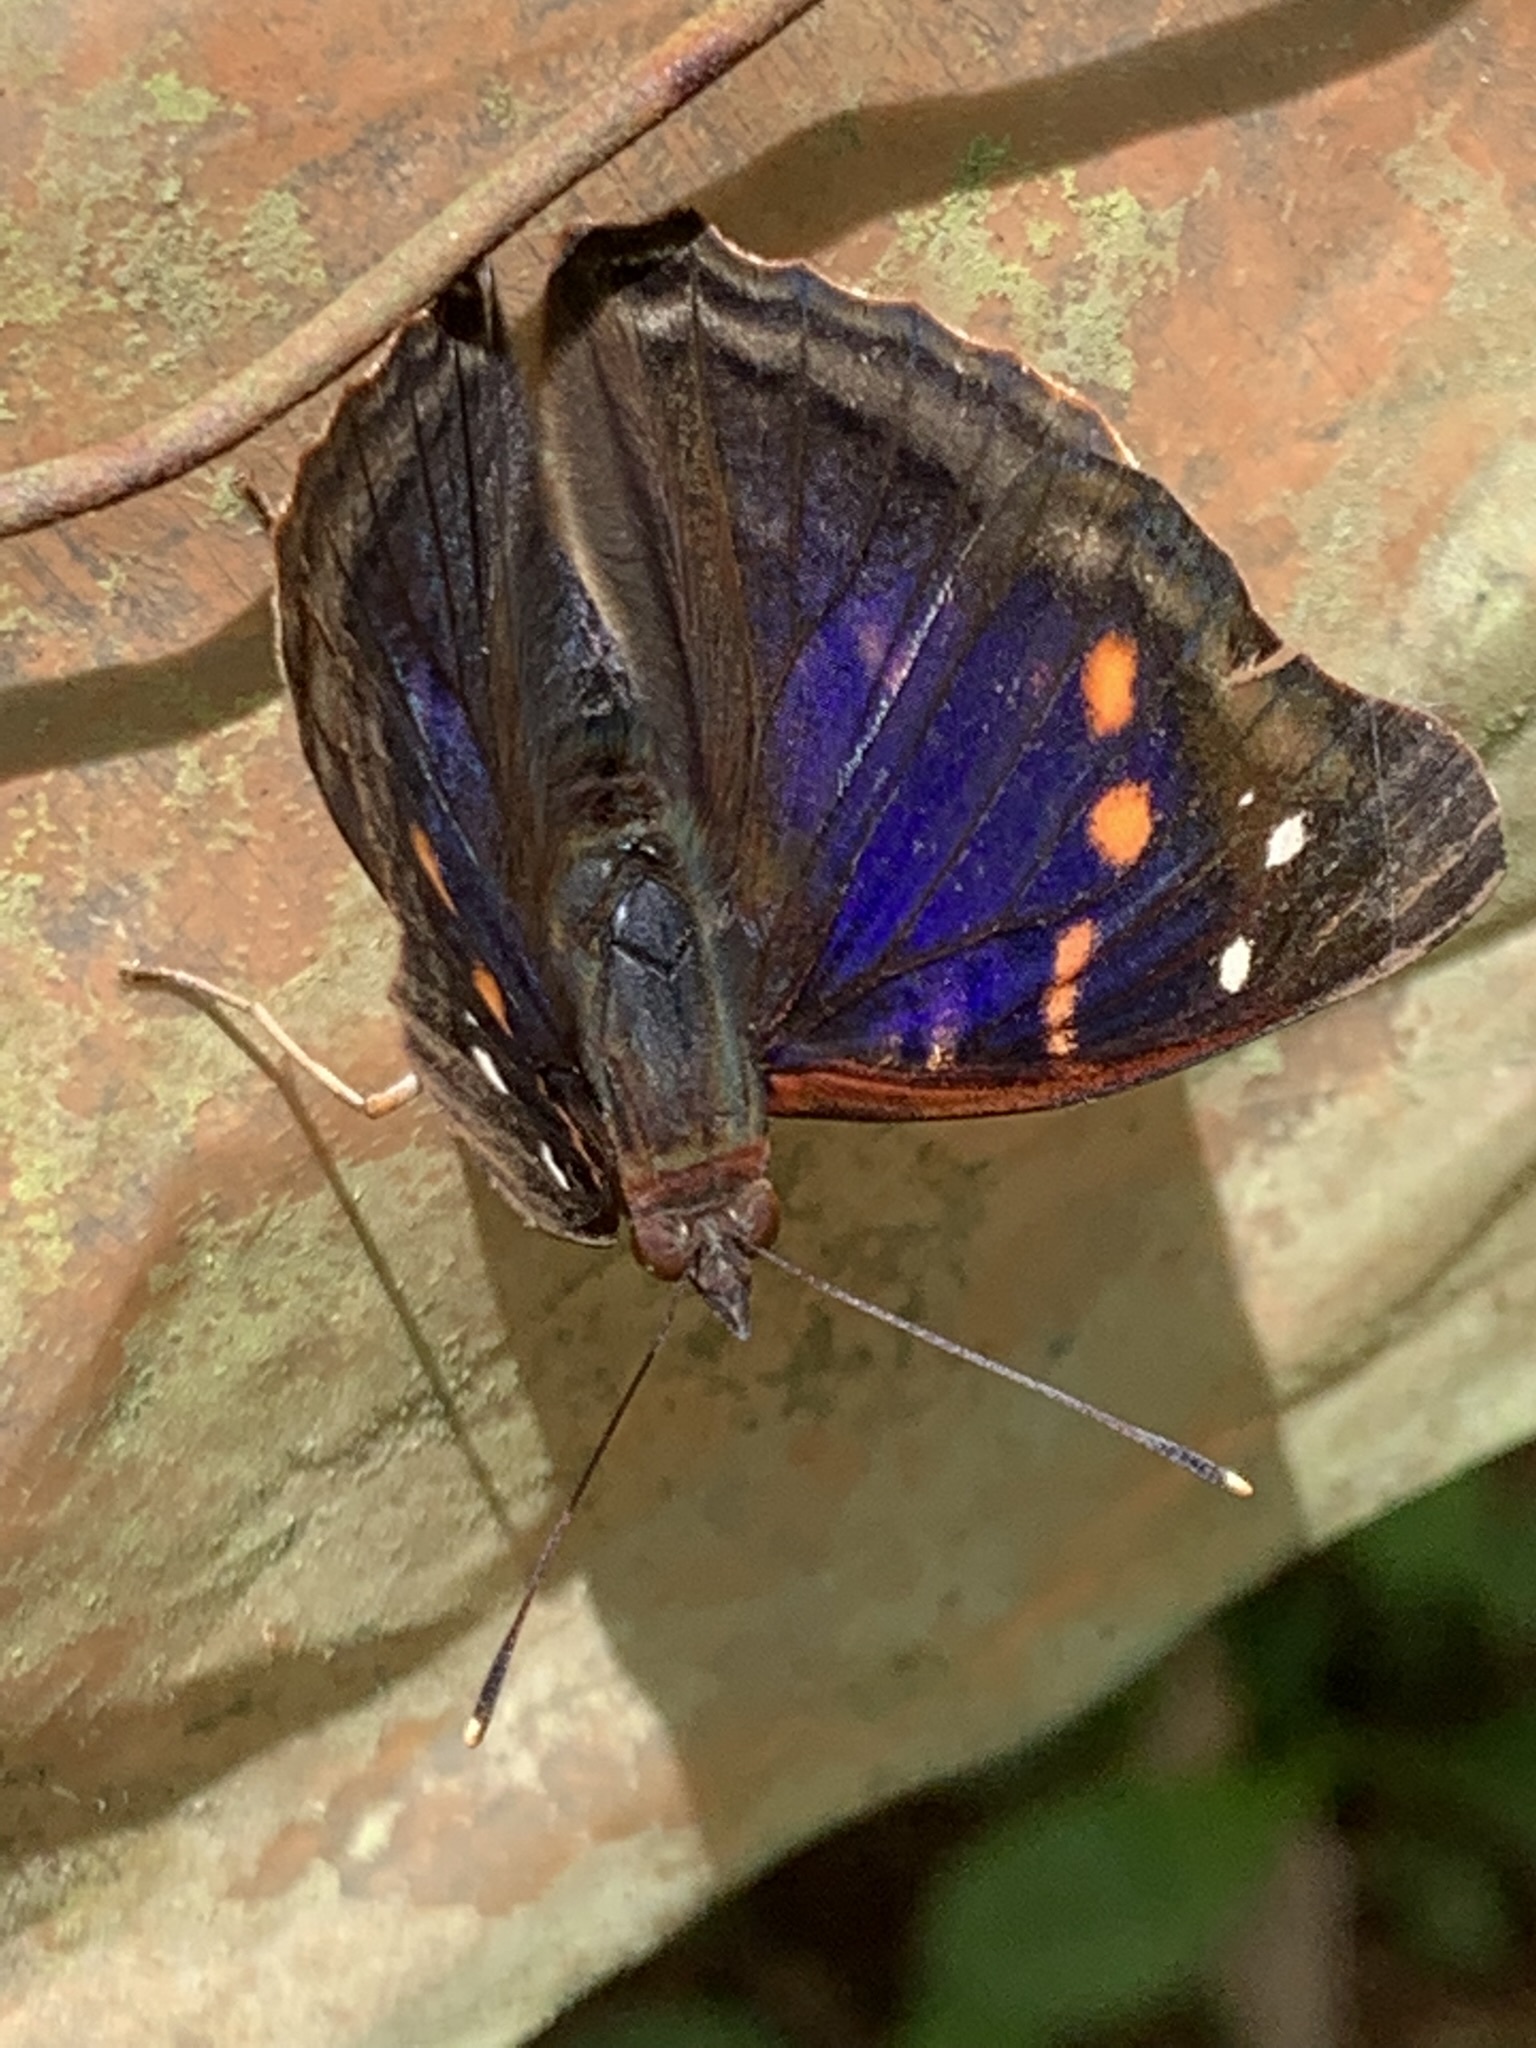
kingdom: Animalia
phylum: Arthropoda
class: Insecta
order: Lepidoptera
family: Nymphalidae
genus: Doxocopa
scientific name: Doxocopa agathina
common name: Agathina emperor
